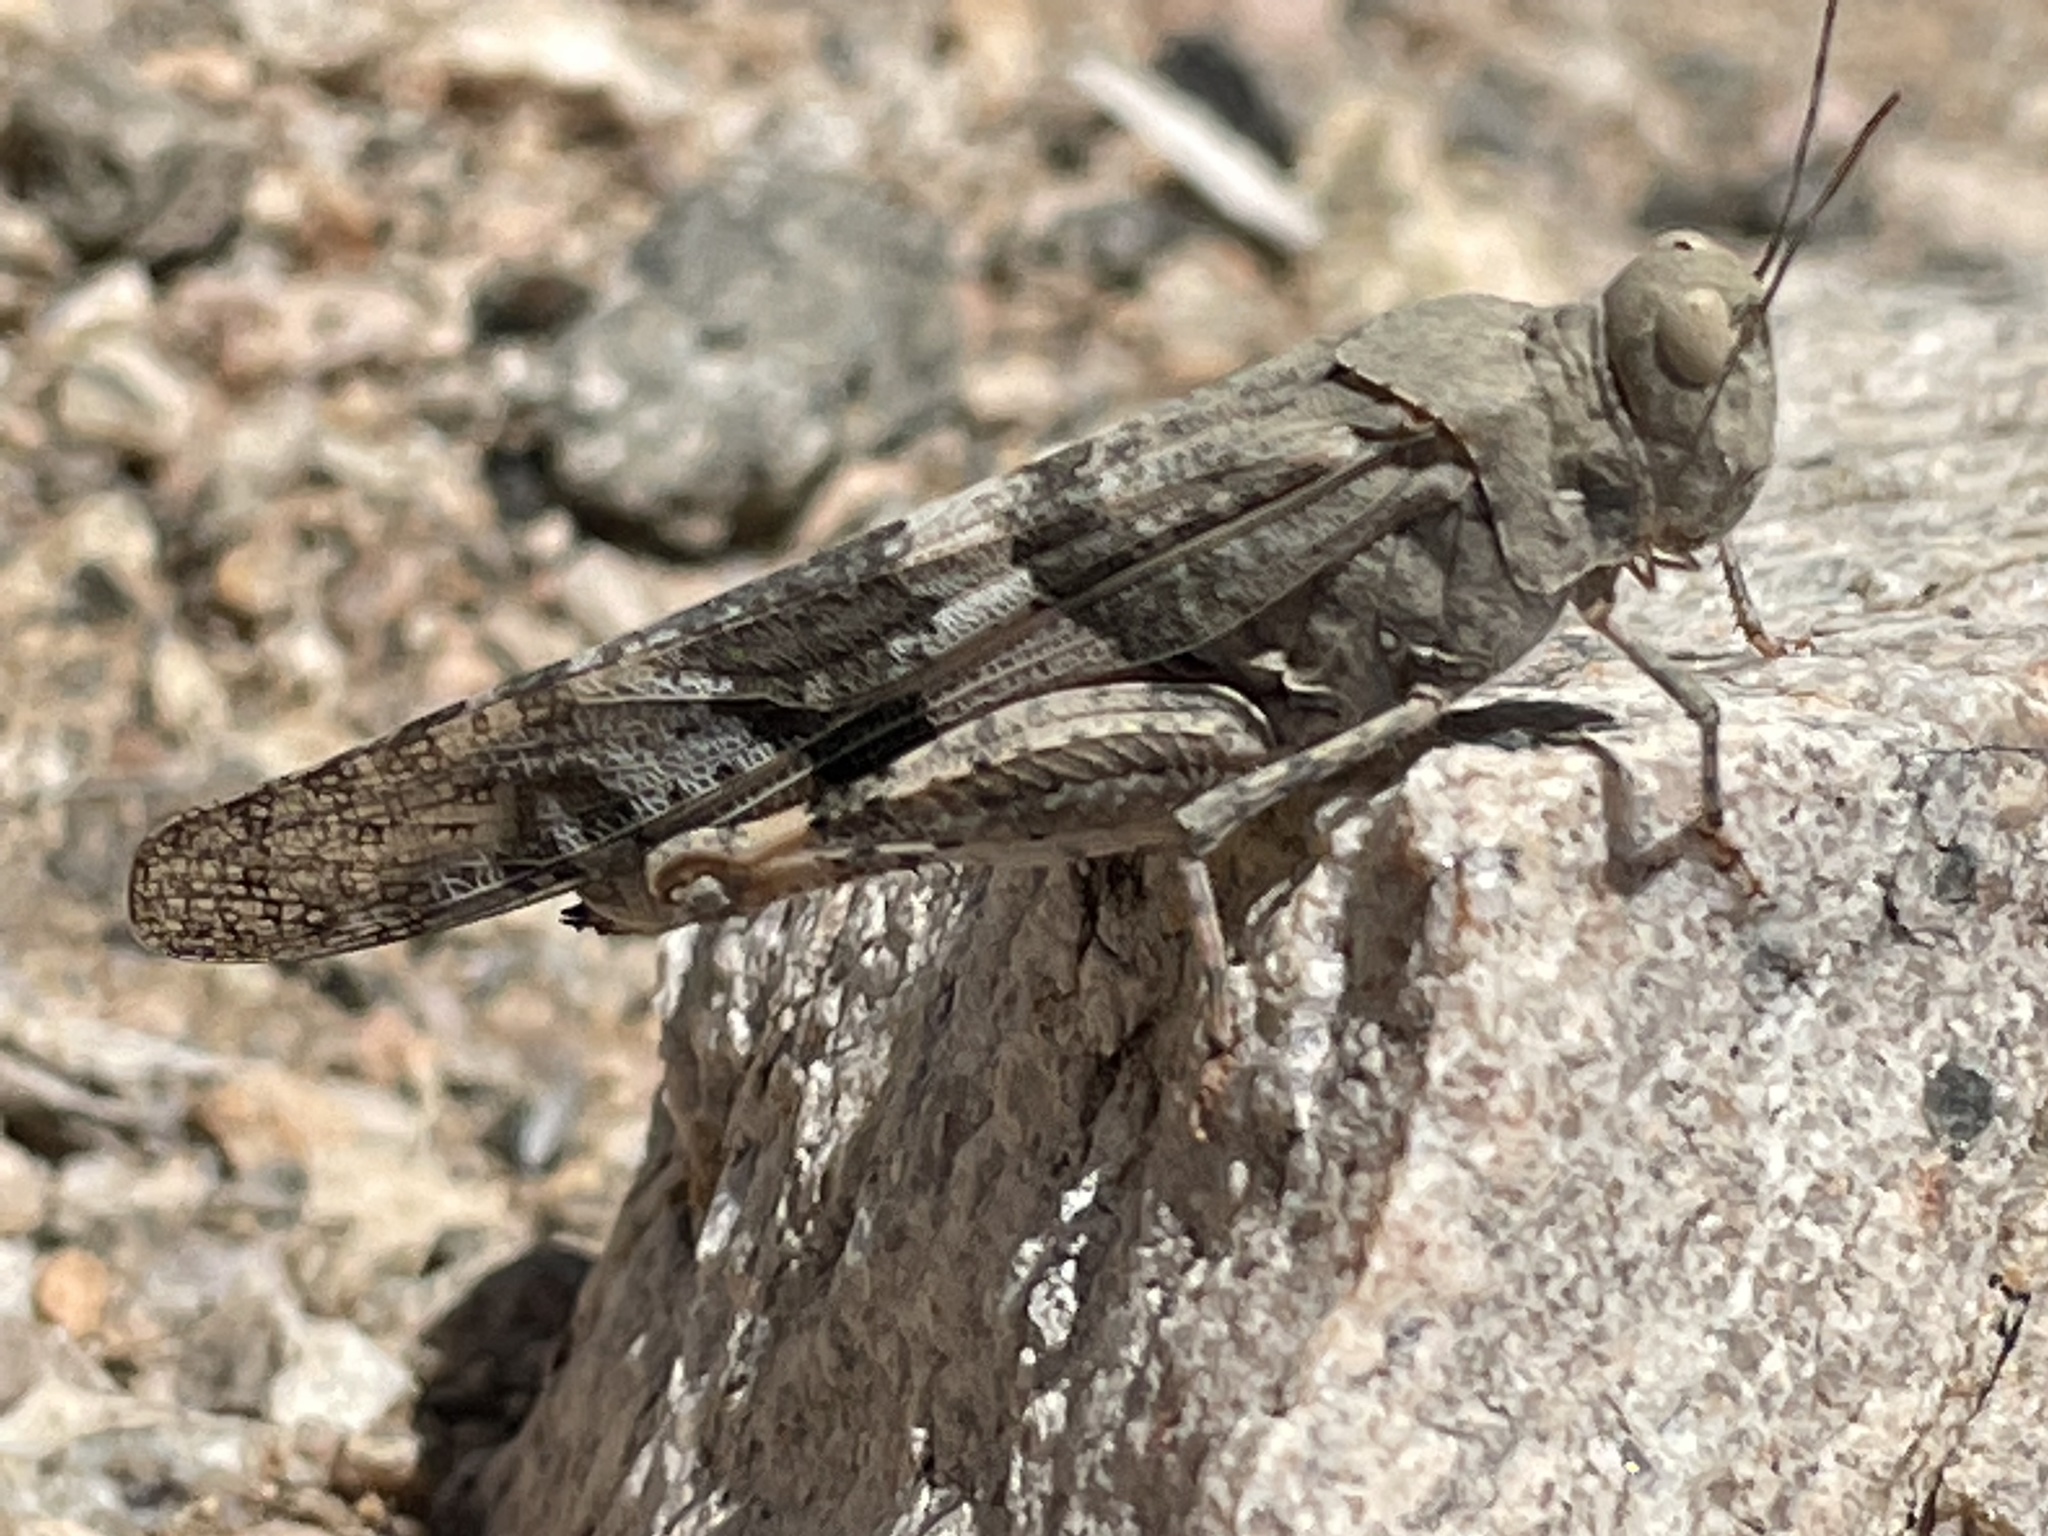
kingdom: Animalia
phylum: Arthropoda
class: Insecta
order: Orthoptera
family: Acrididae
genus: Trimerotropis
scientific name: Trimerotropis pallidipennis
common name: Pallid-winged grasshopper
